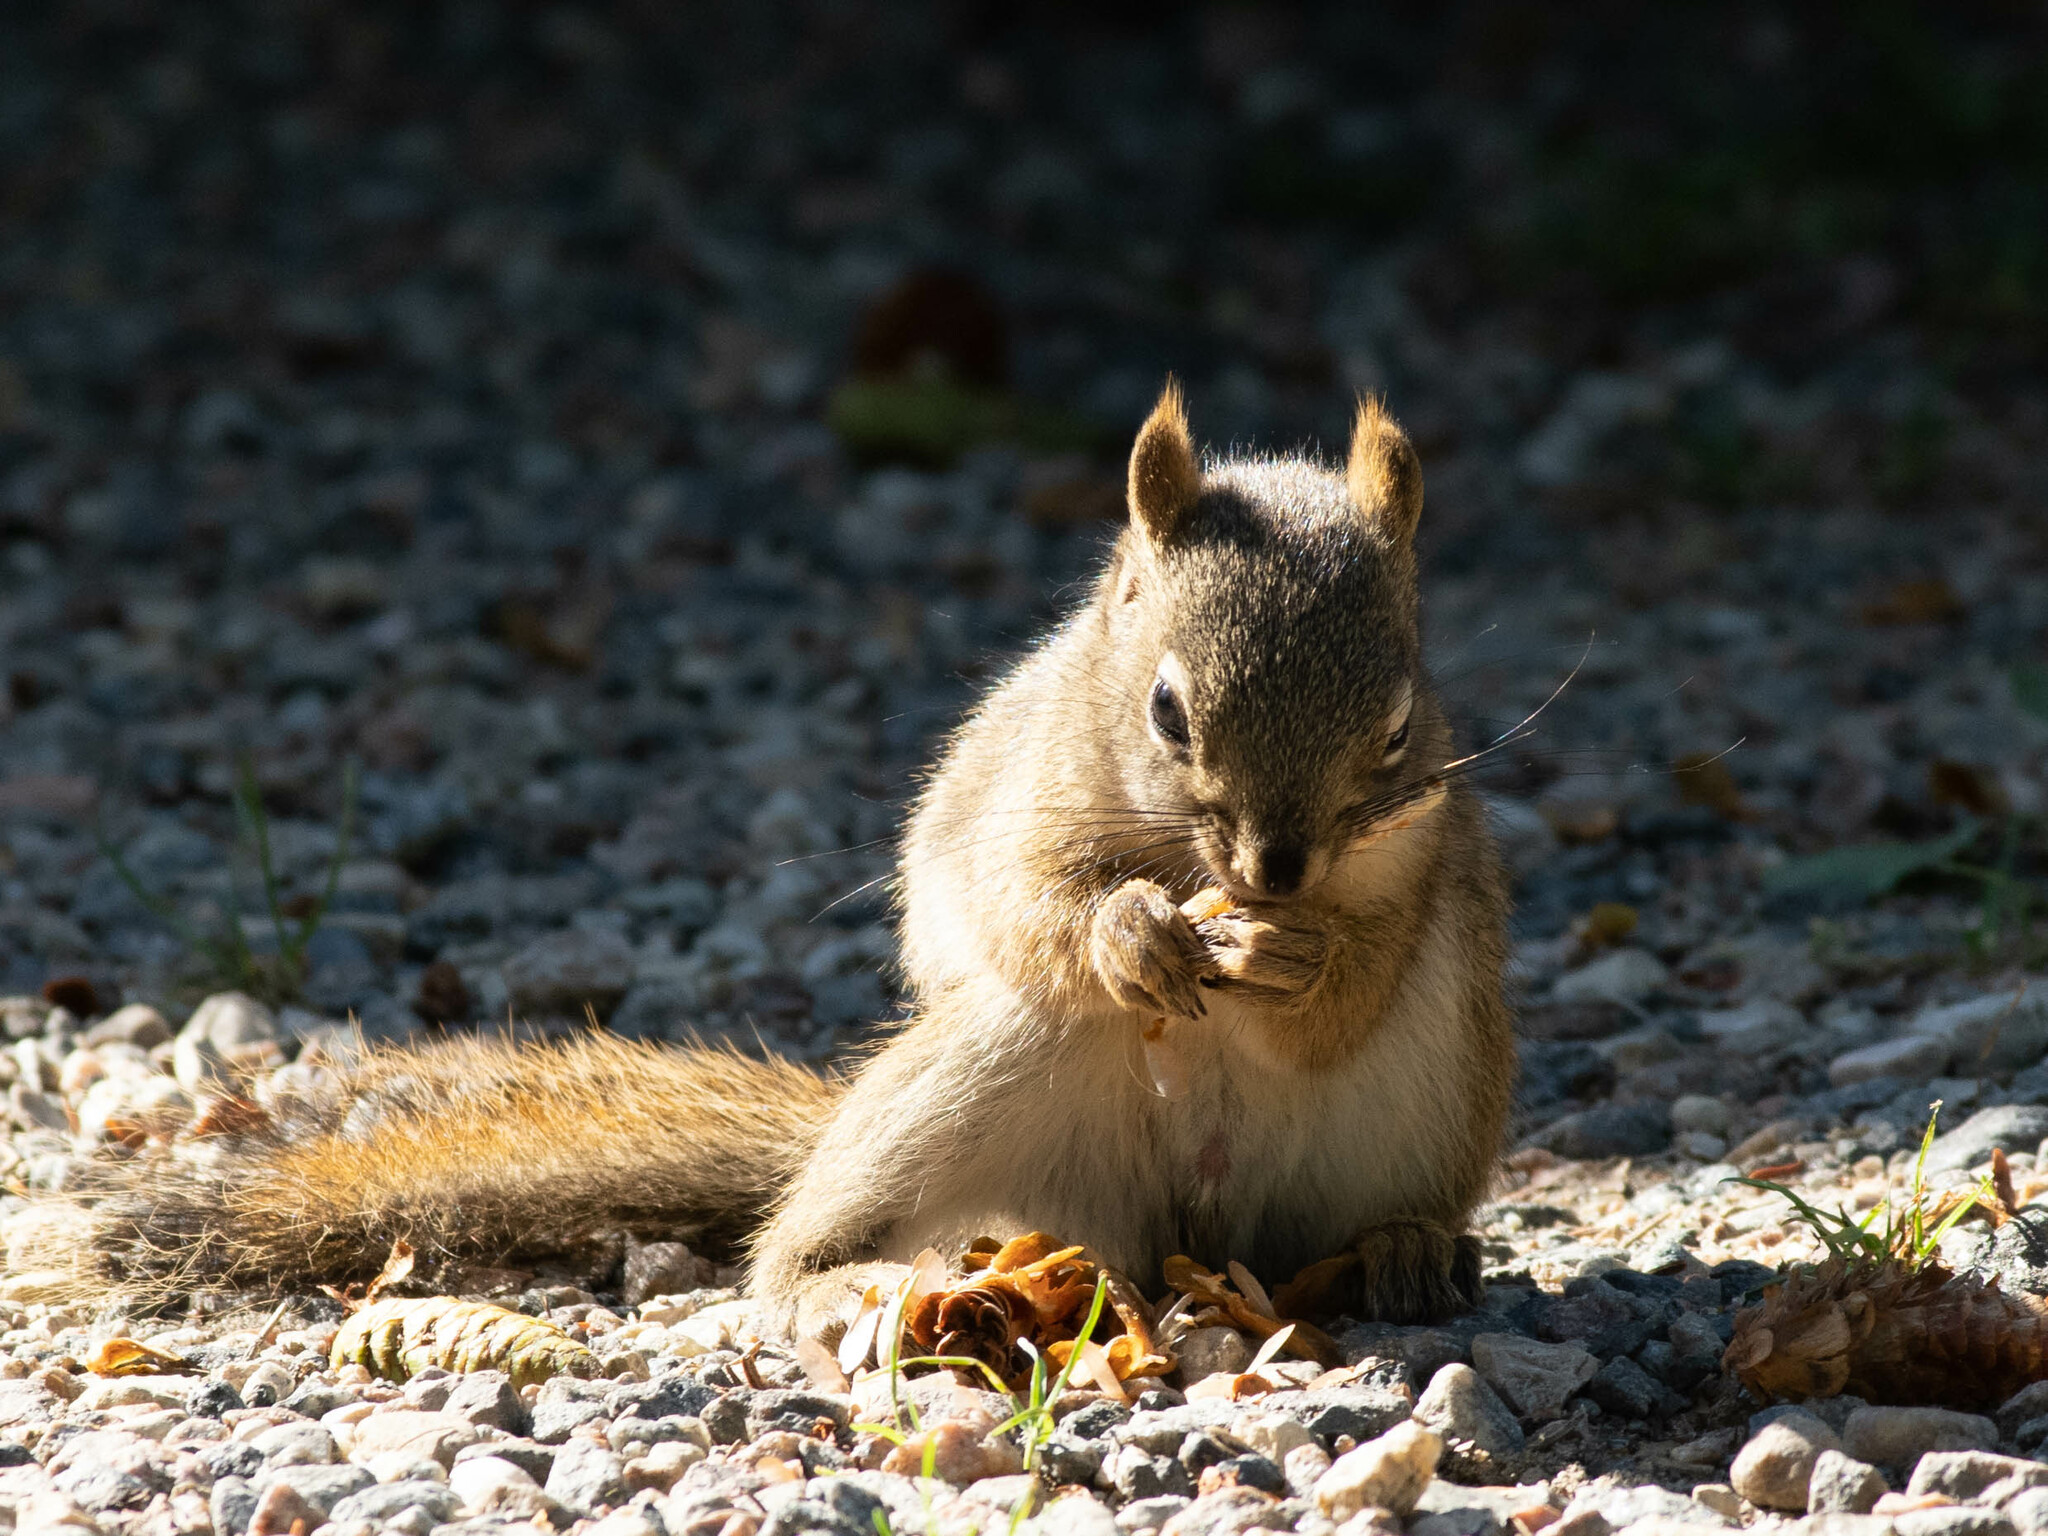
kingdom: Animalia
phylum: Chordata
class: Mammalia
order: Rodentia
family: Sciuridae
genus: Tamiasciurus
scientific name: Tamiasciurus hudsonicus
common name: Red squirrel
